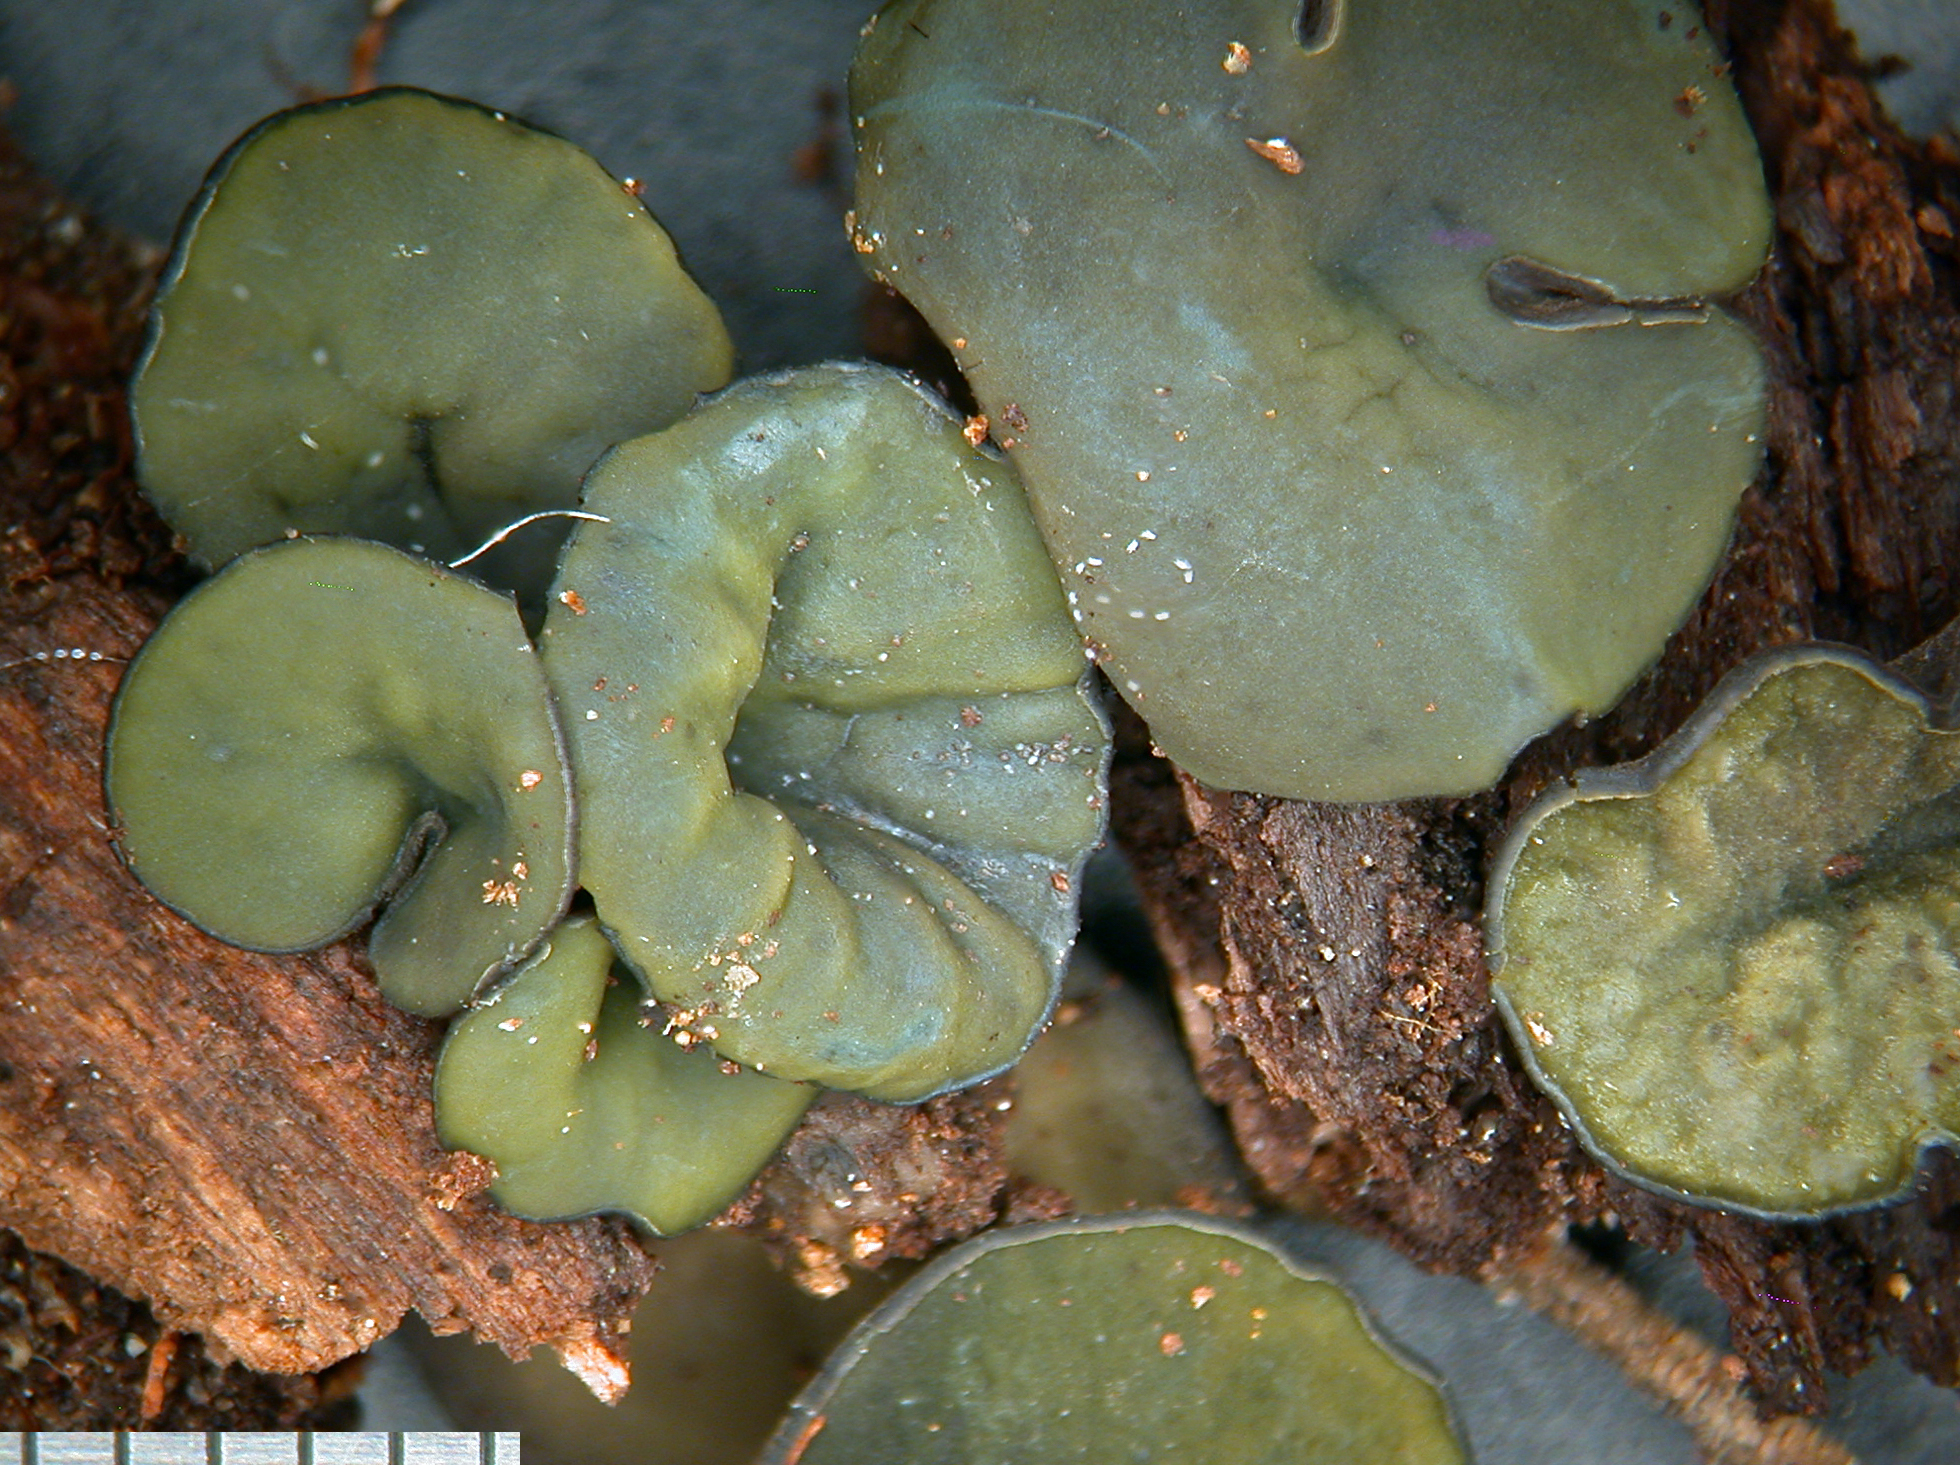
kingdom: Fungi
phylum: Ascomycota
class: Leotiomycetes
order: Helotiales
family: Cenangiaceae
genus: Chlorencoelia
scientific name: Chlorencoelia versiformis
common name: Flea's ear
